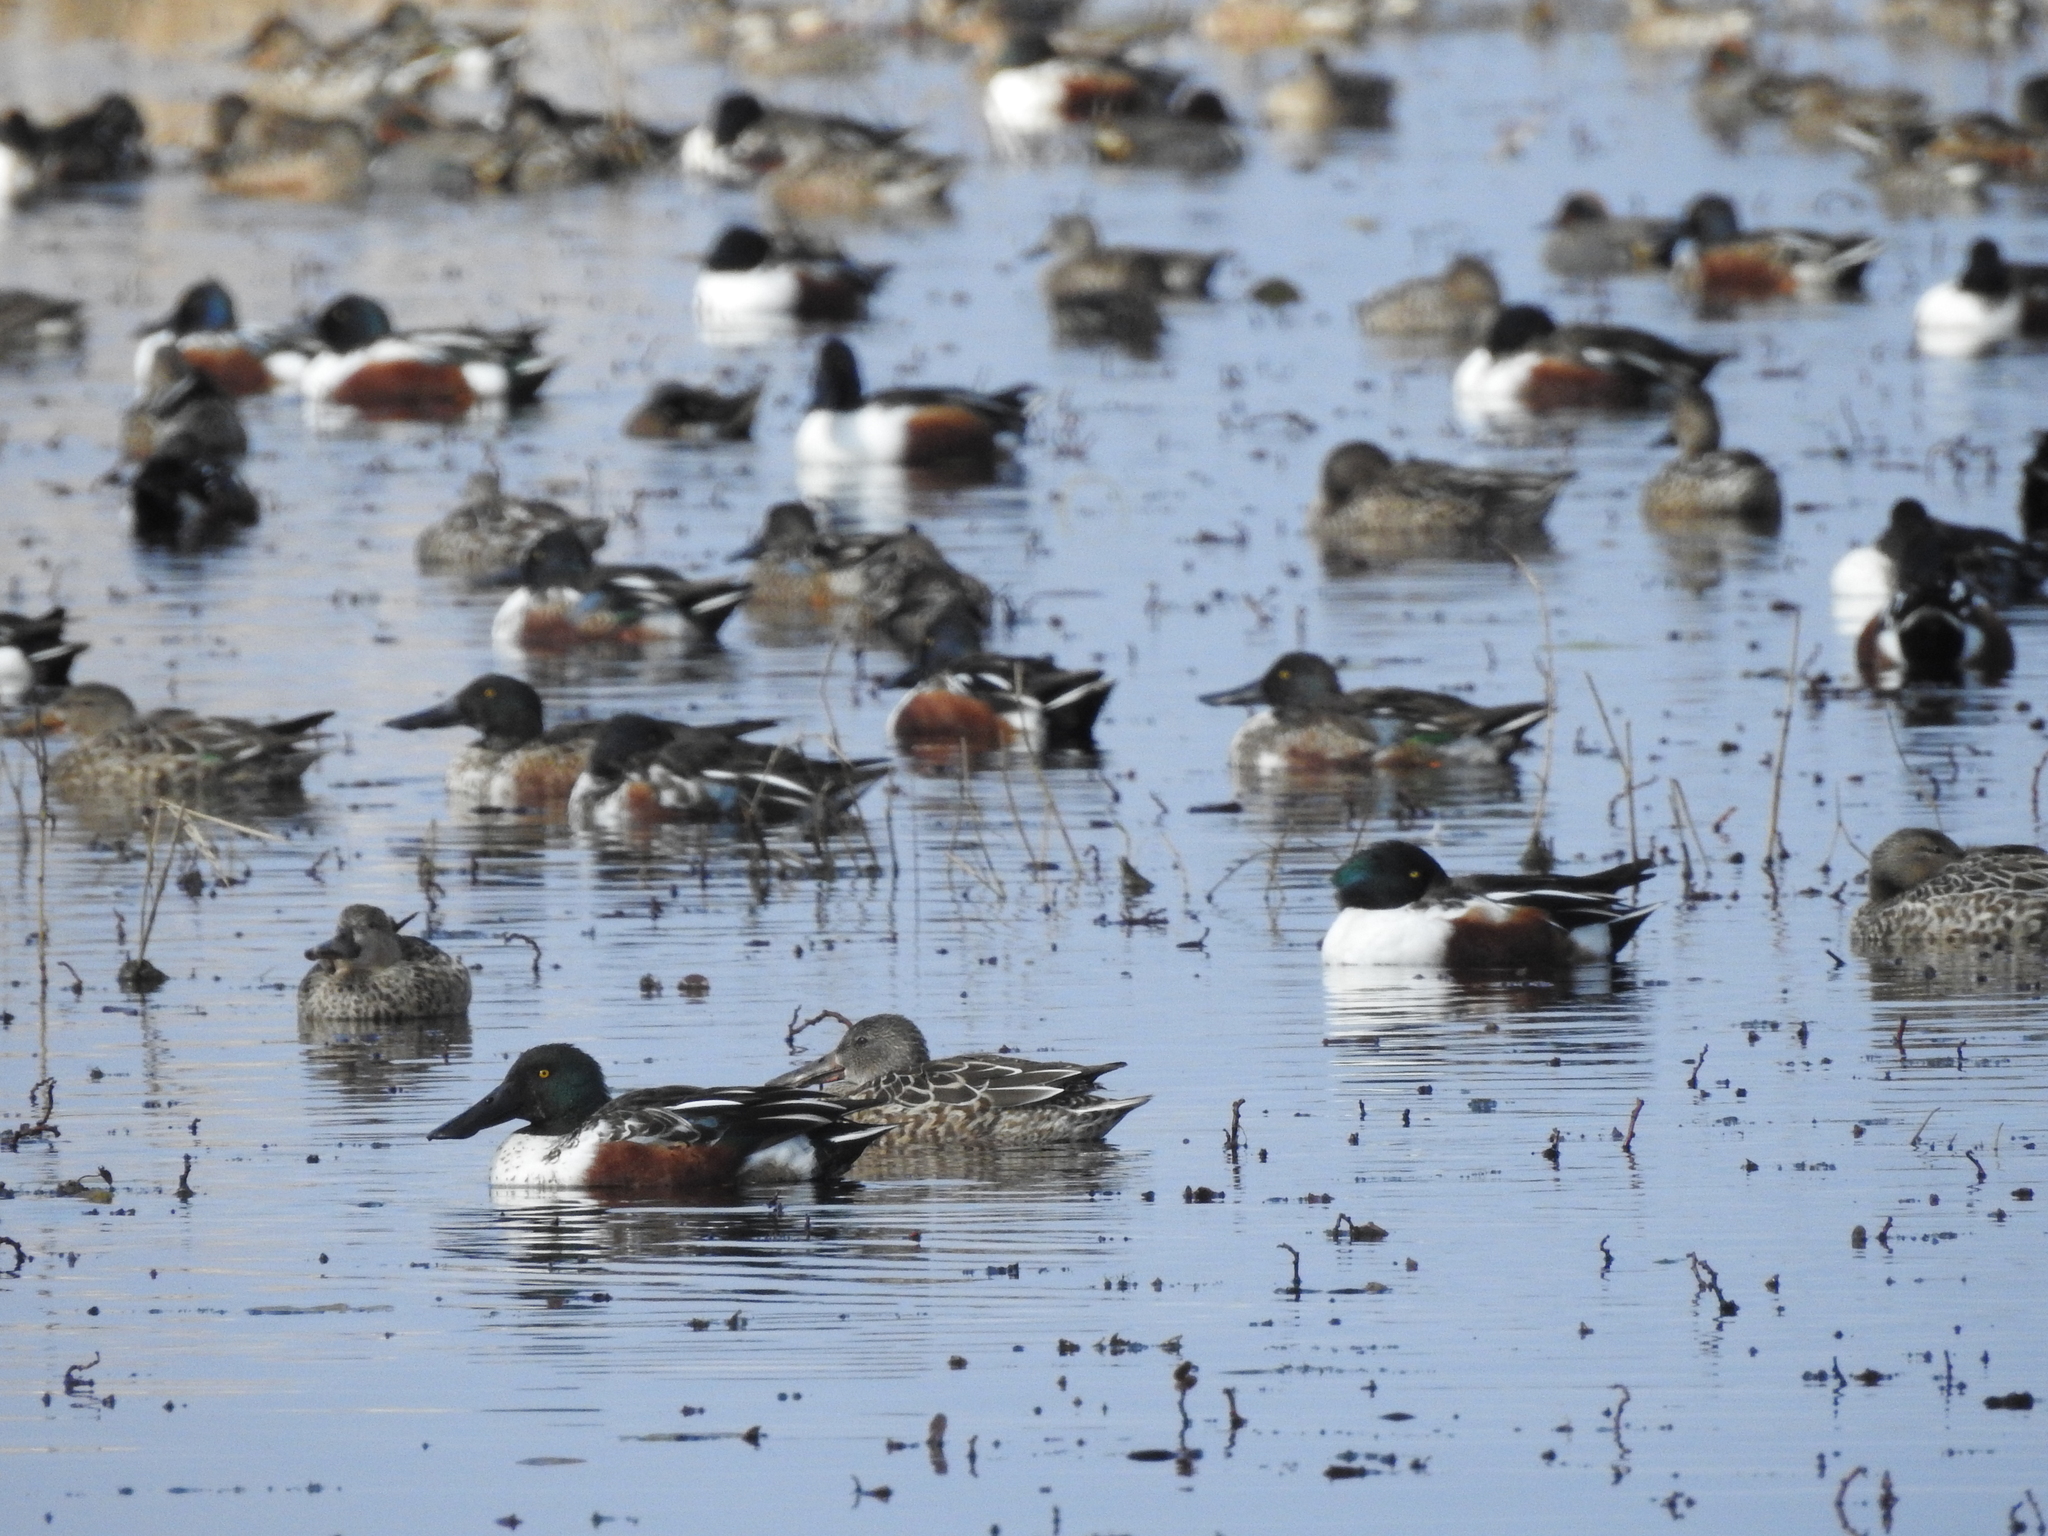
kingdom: Animalia
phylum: Chordata
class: Aves
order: Anseriformes
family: Anatidae
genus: Spatula
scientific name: Spatula clypeata
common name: Northern shoveler
